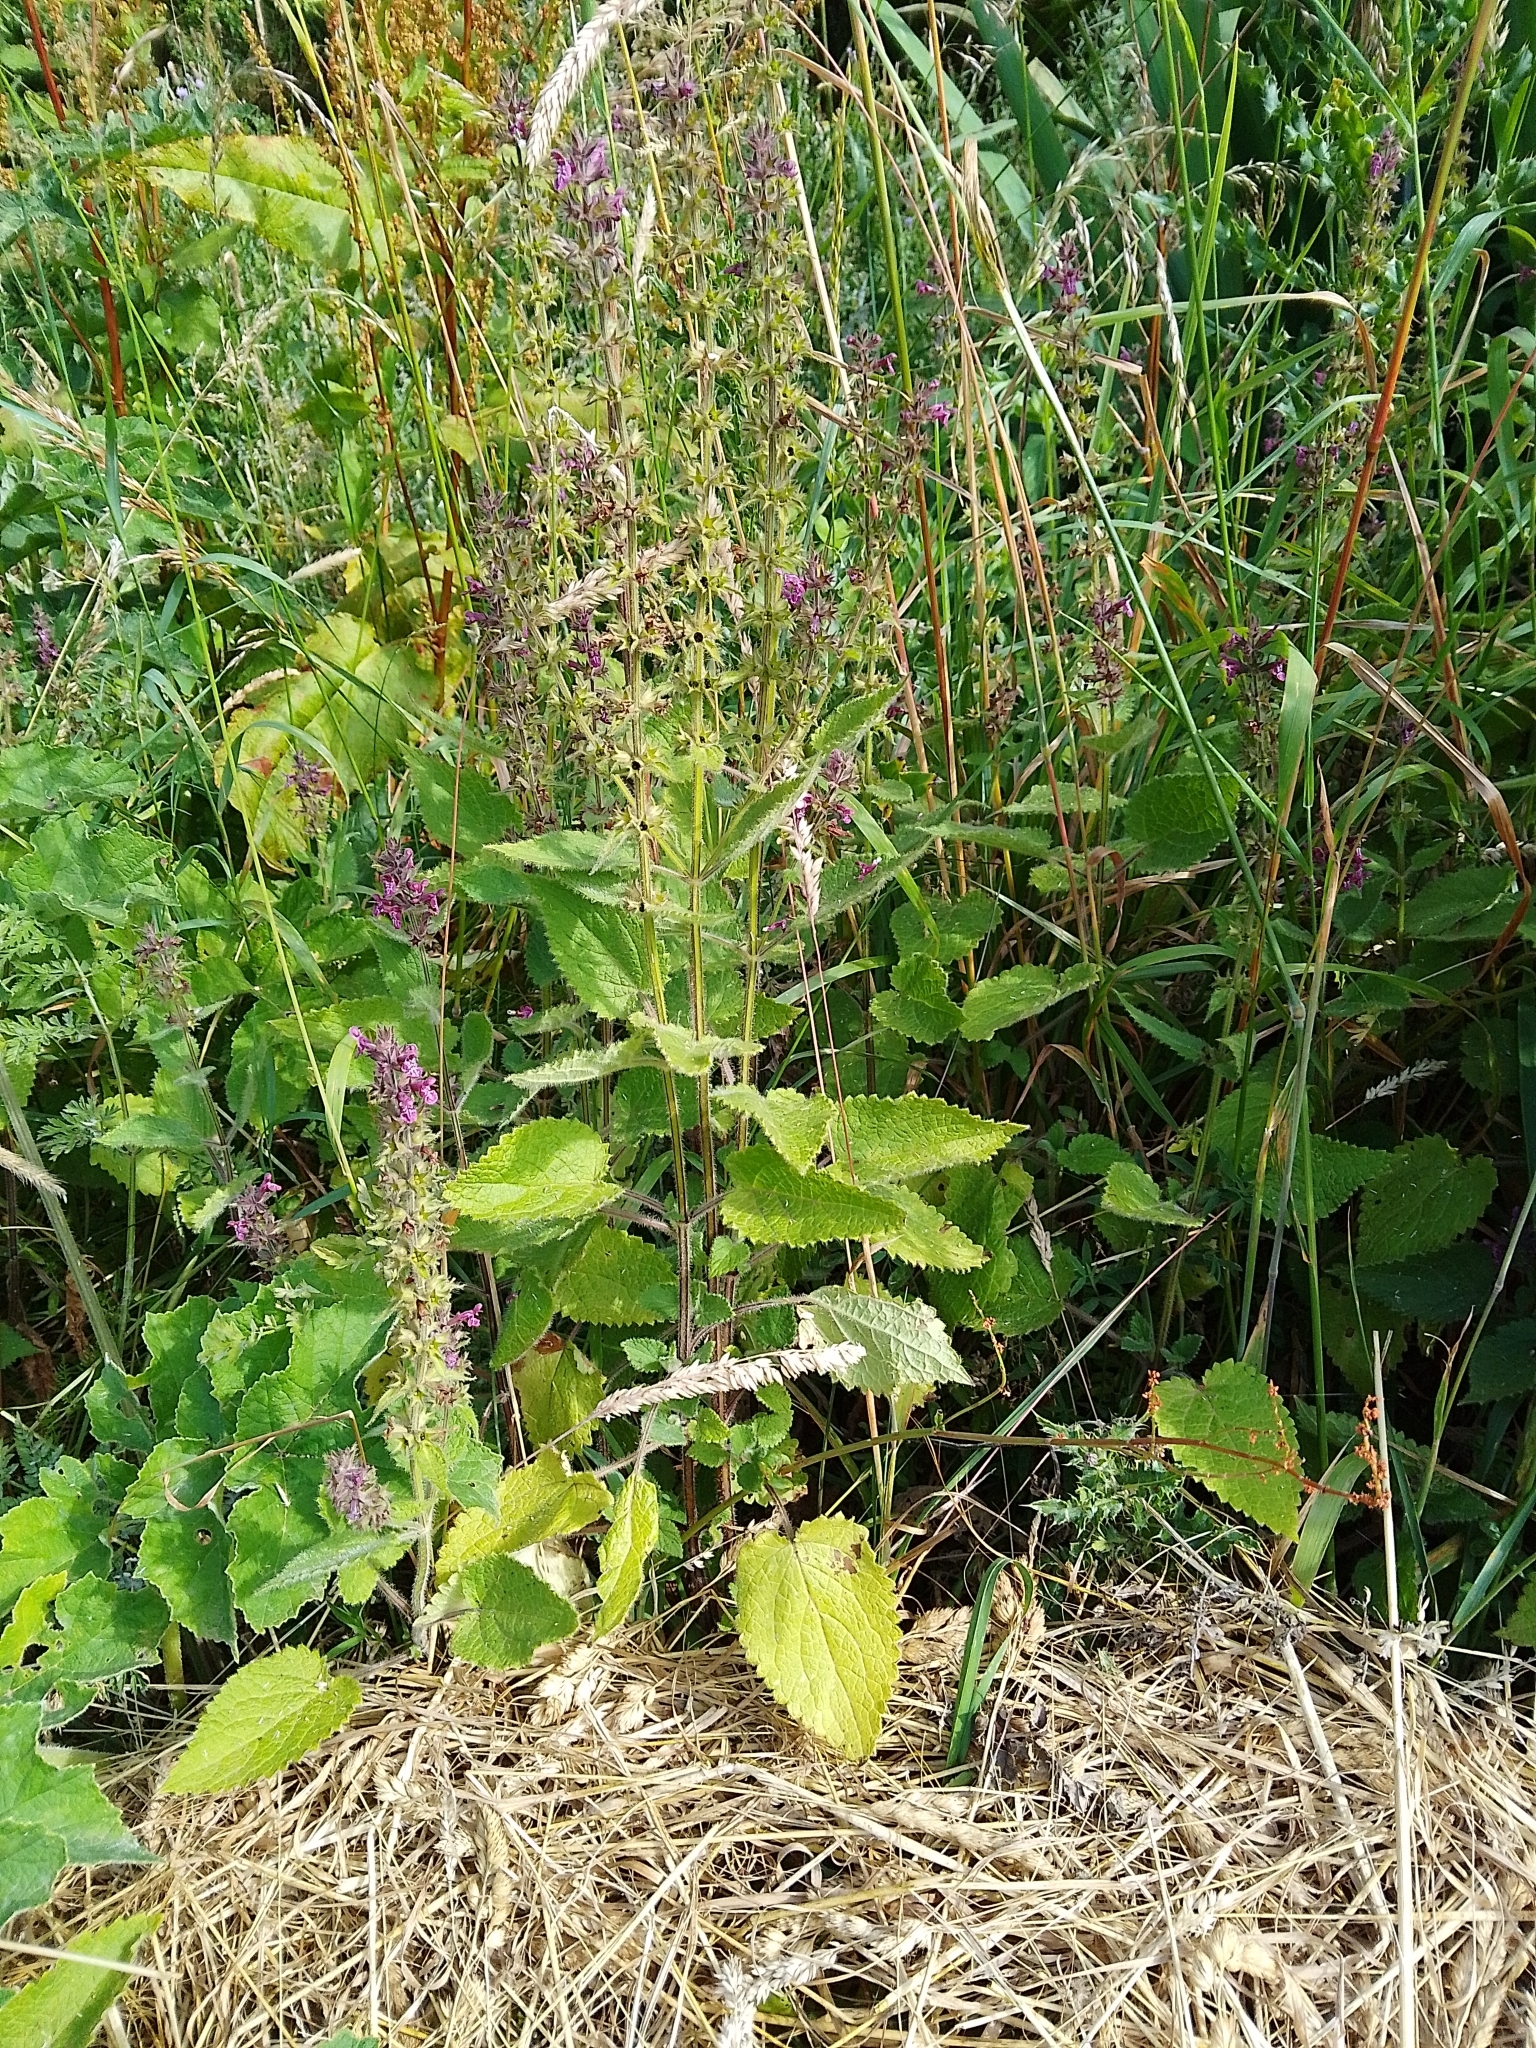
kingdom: Plantae
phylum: Tracheophyta
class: Magnoliopsida
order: Lamiales
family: Lamiaceae
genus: Stachys
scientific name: Stachys sylvatica
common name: Hedge woundwort
